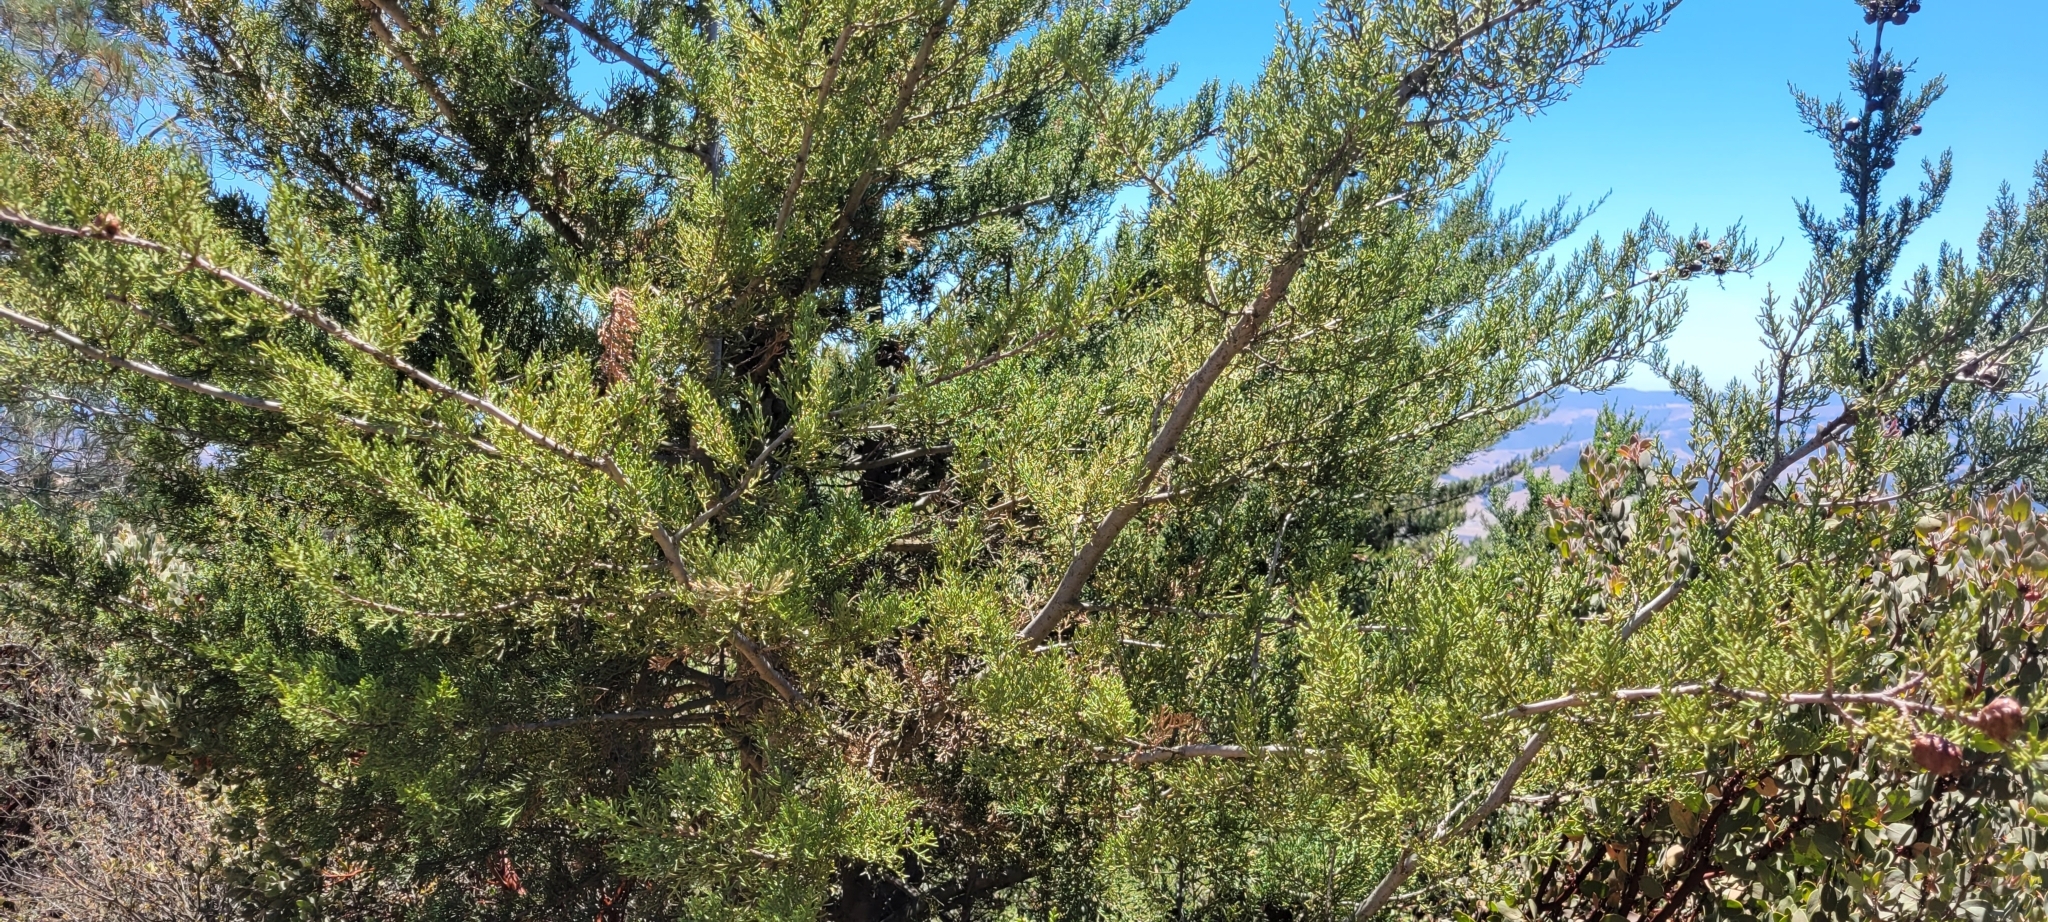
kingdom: Plantae
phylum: Tracheophyta
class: Pinopsida
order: Pinales
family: Cupressaceae
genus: Cupressus
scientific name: Cupressus sargentii
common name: Sargent cypress
